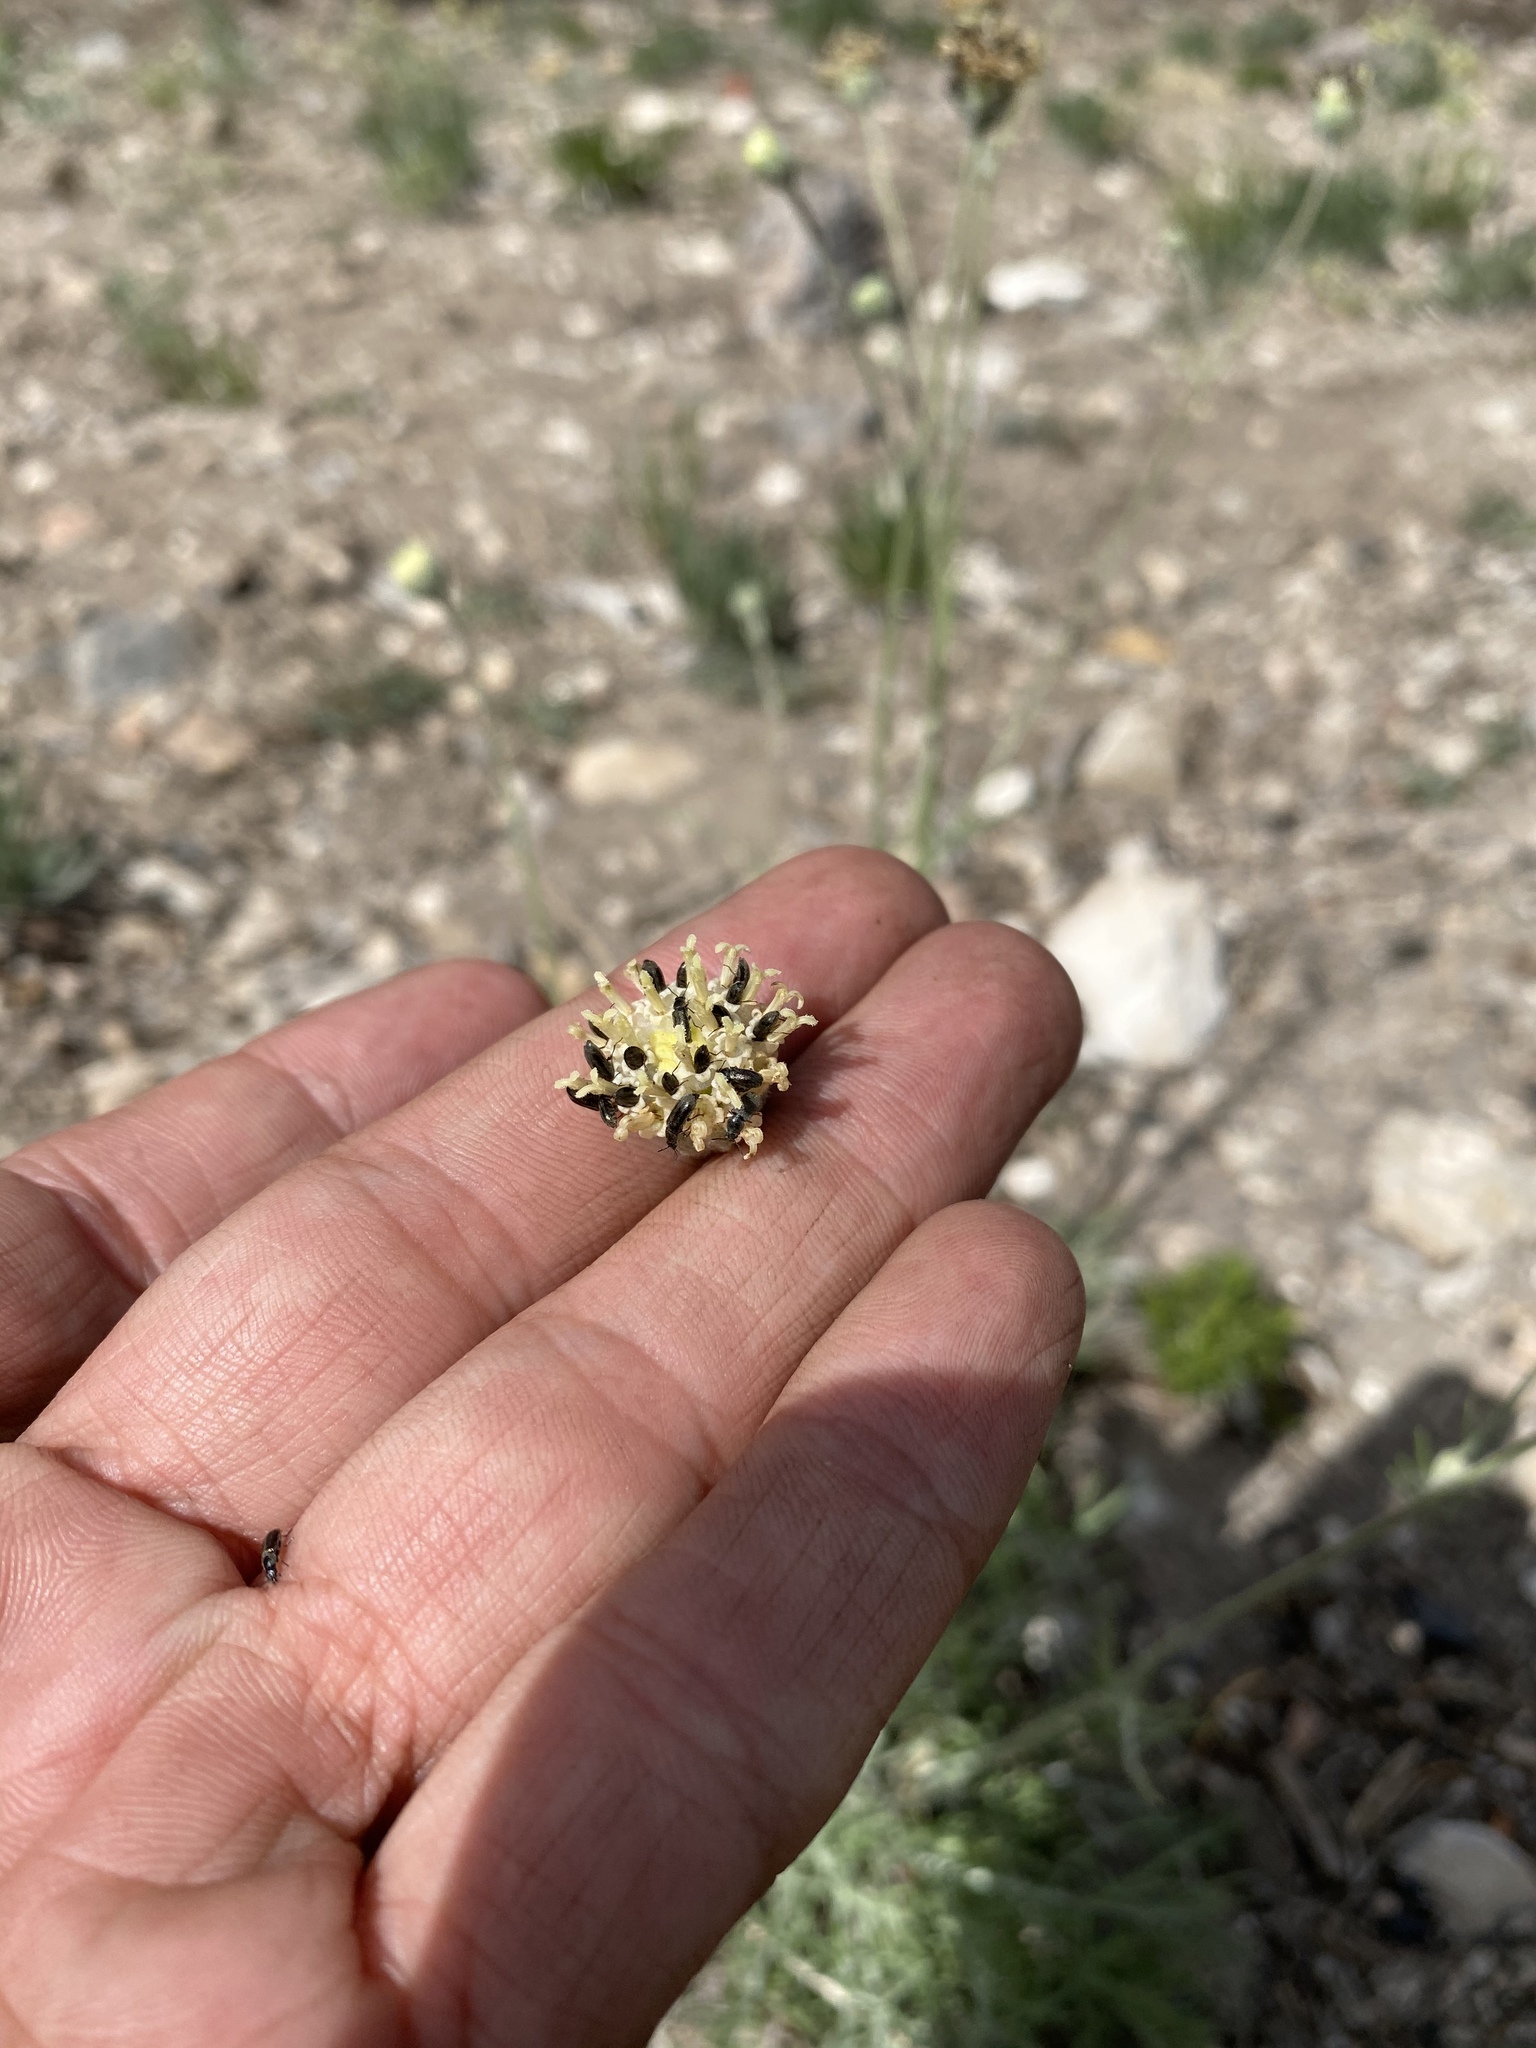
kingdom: Plantae
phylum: Tracheophyta
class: Magnoliopsida
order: Asterales
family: Asteraceae
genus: Hymenopappus
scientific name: Hymenopappus filifolius
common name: Columbia cutleaf
